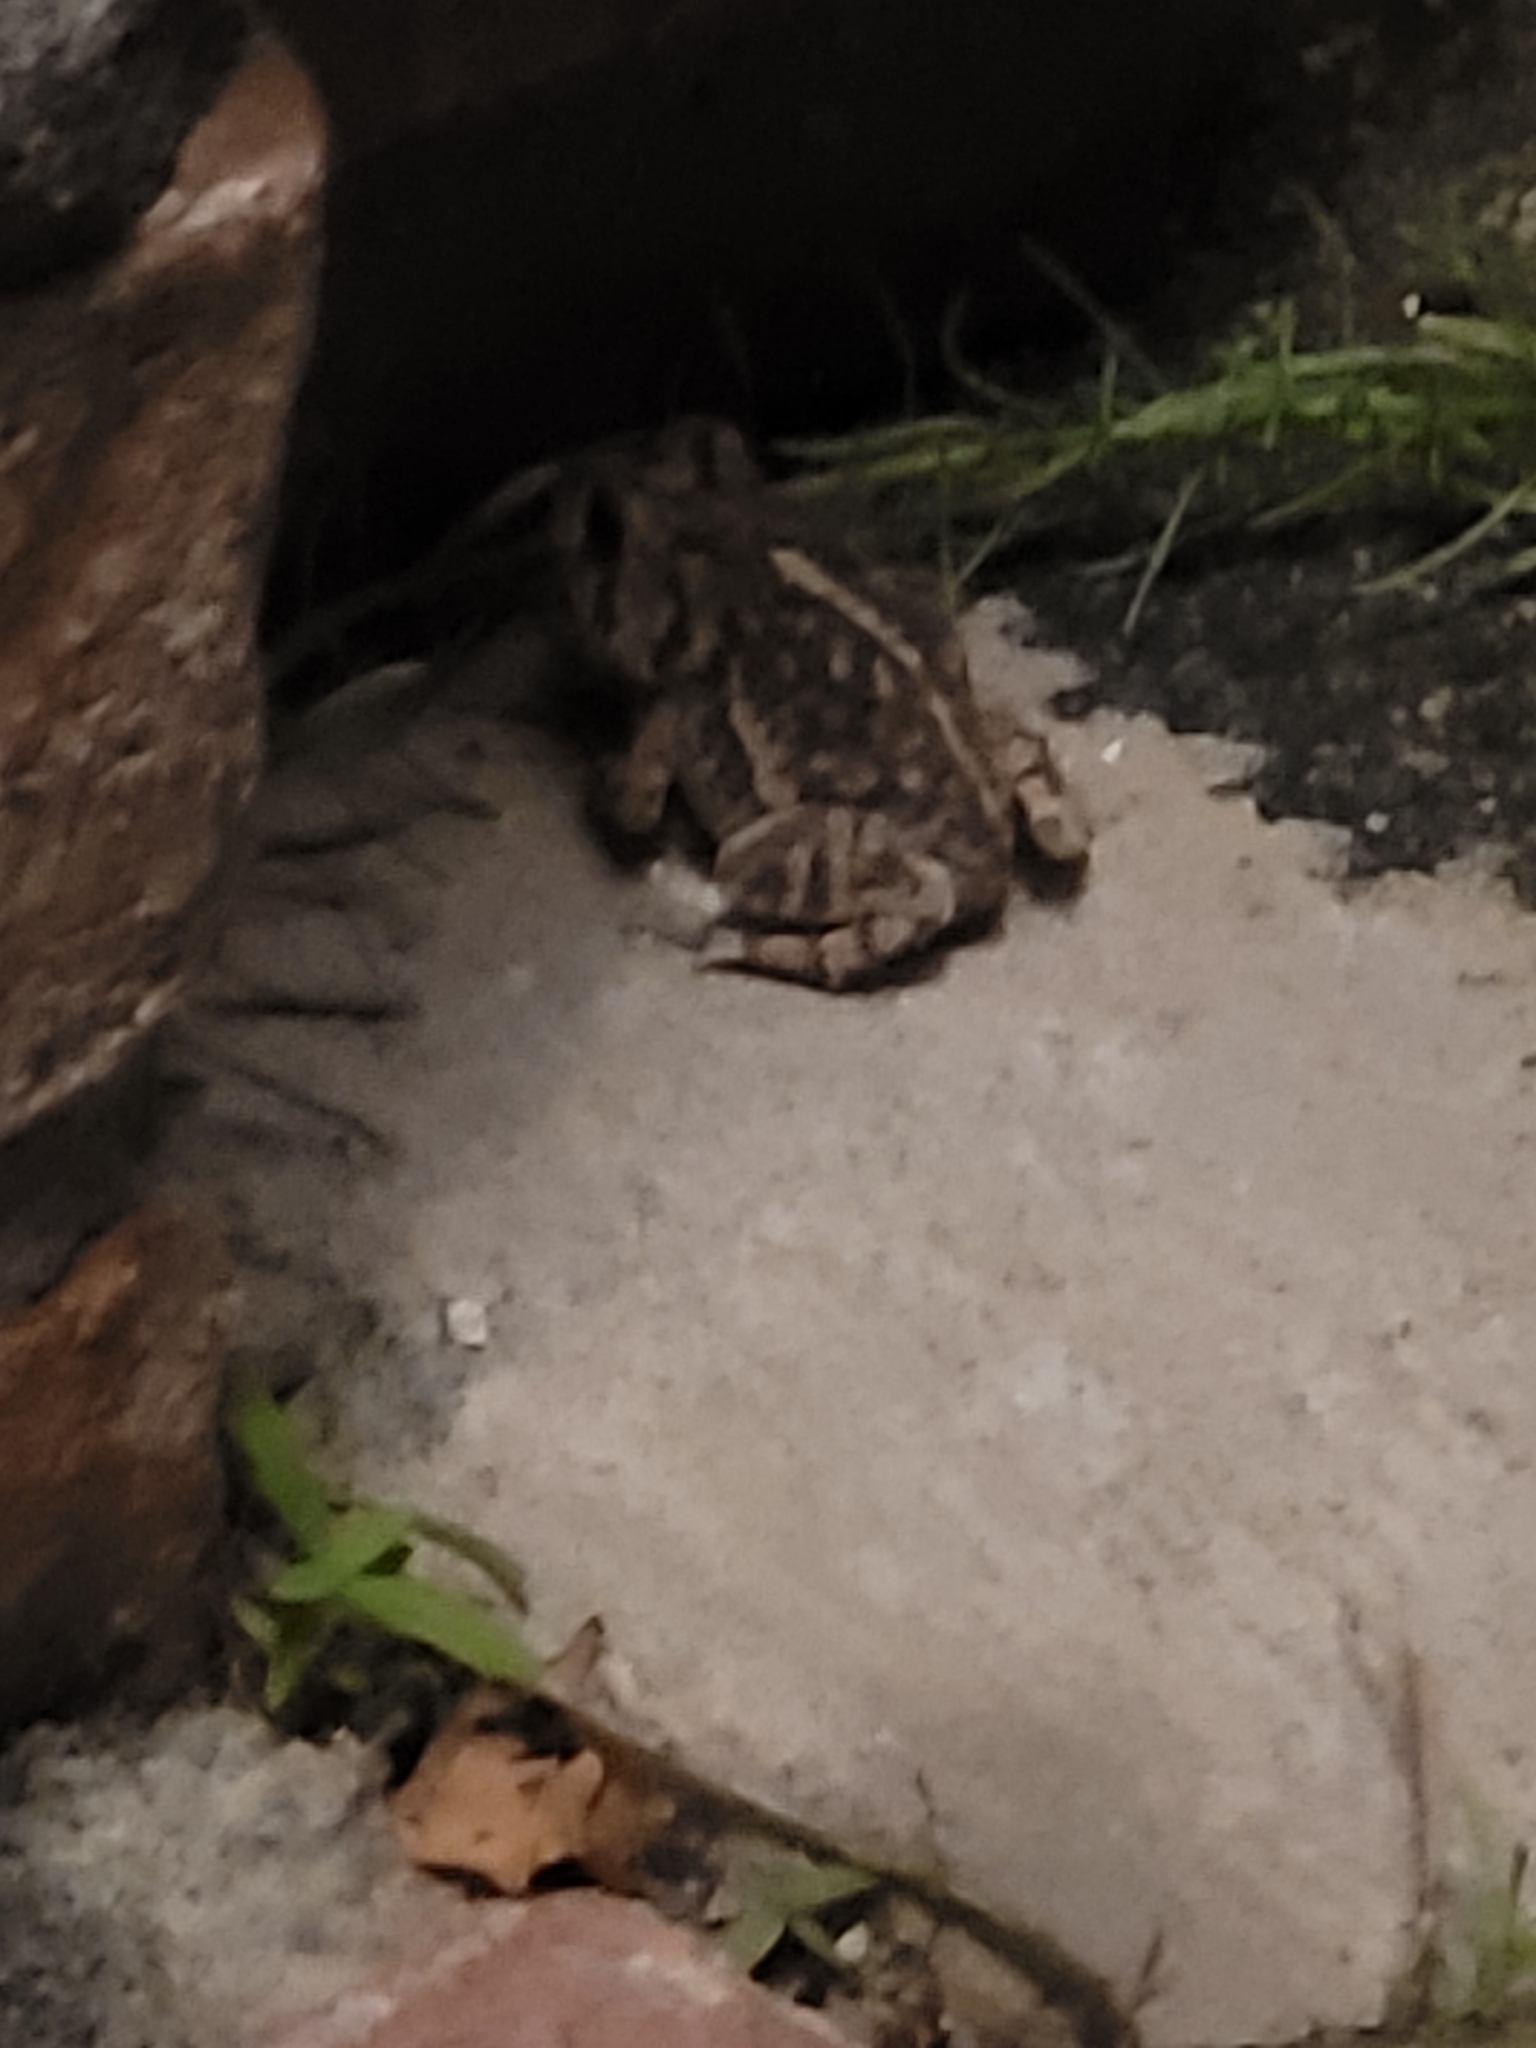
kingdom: Animalia
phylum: Chordata
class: Amphibia
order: Anura
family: Bufonidae
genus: Anaxyrus
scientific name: Anaxyrus terrestris
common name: Southern toad
